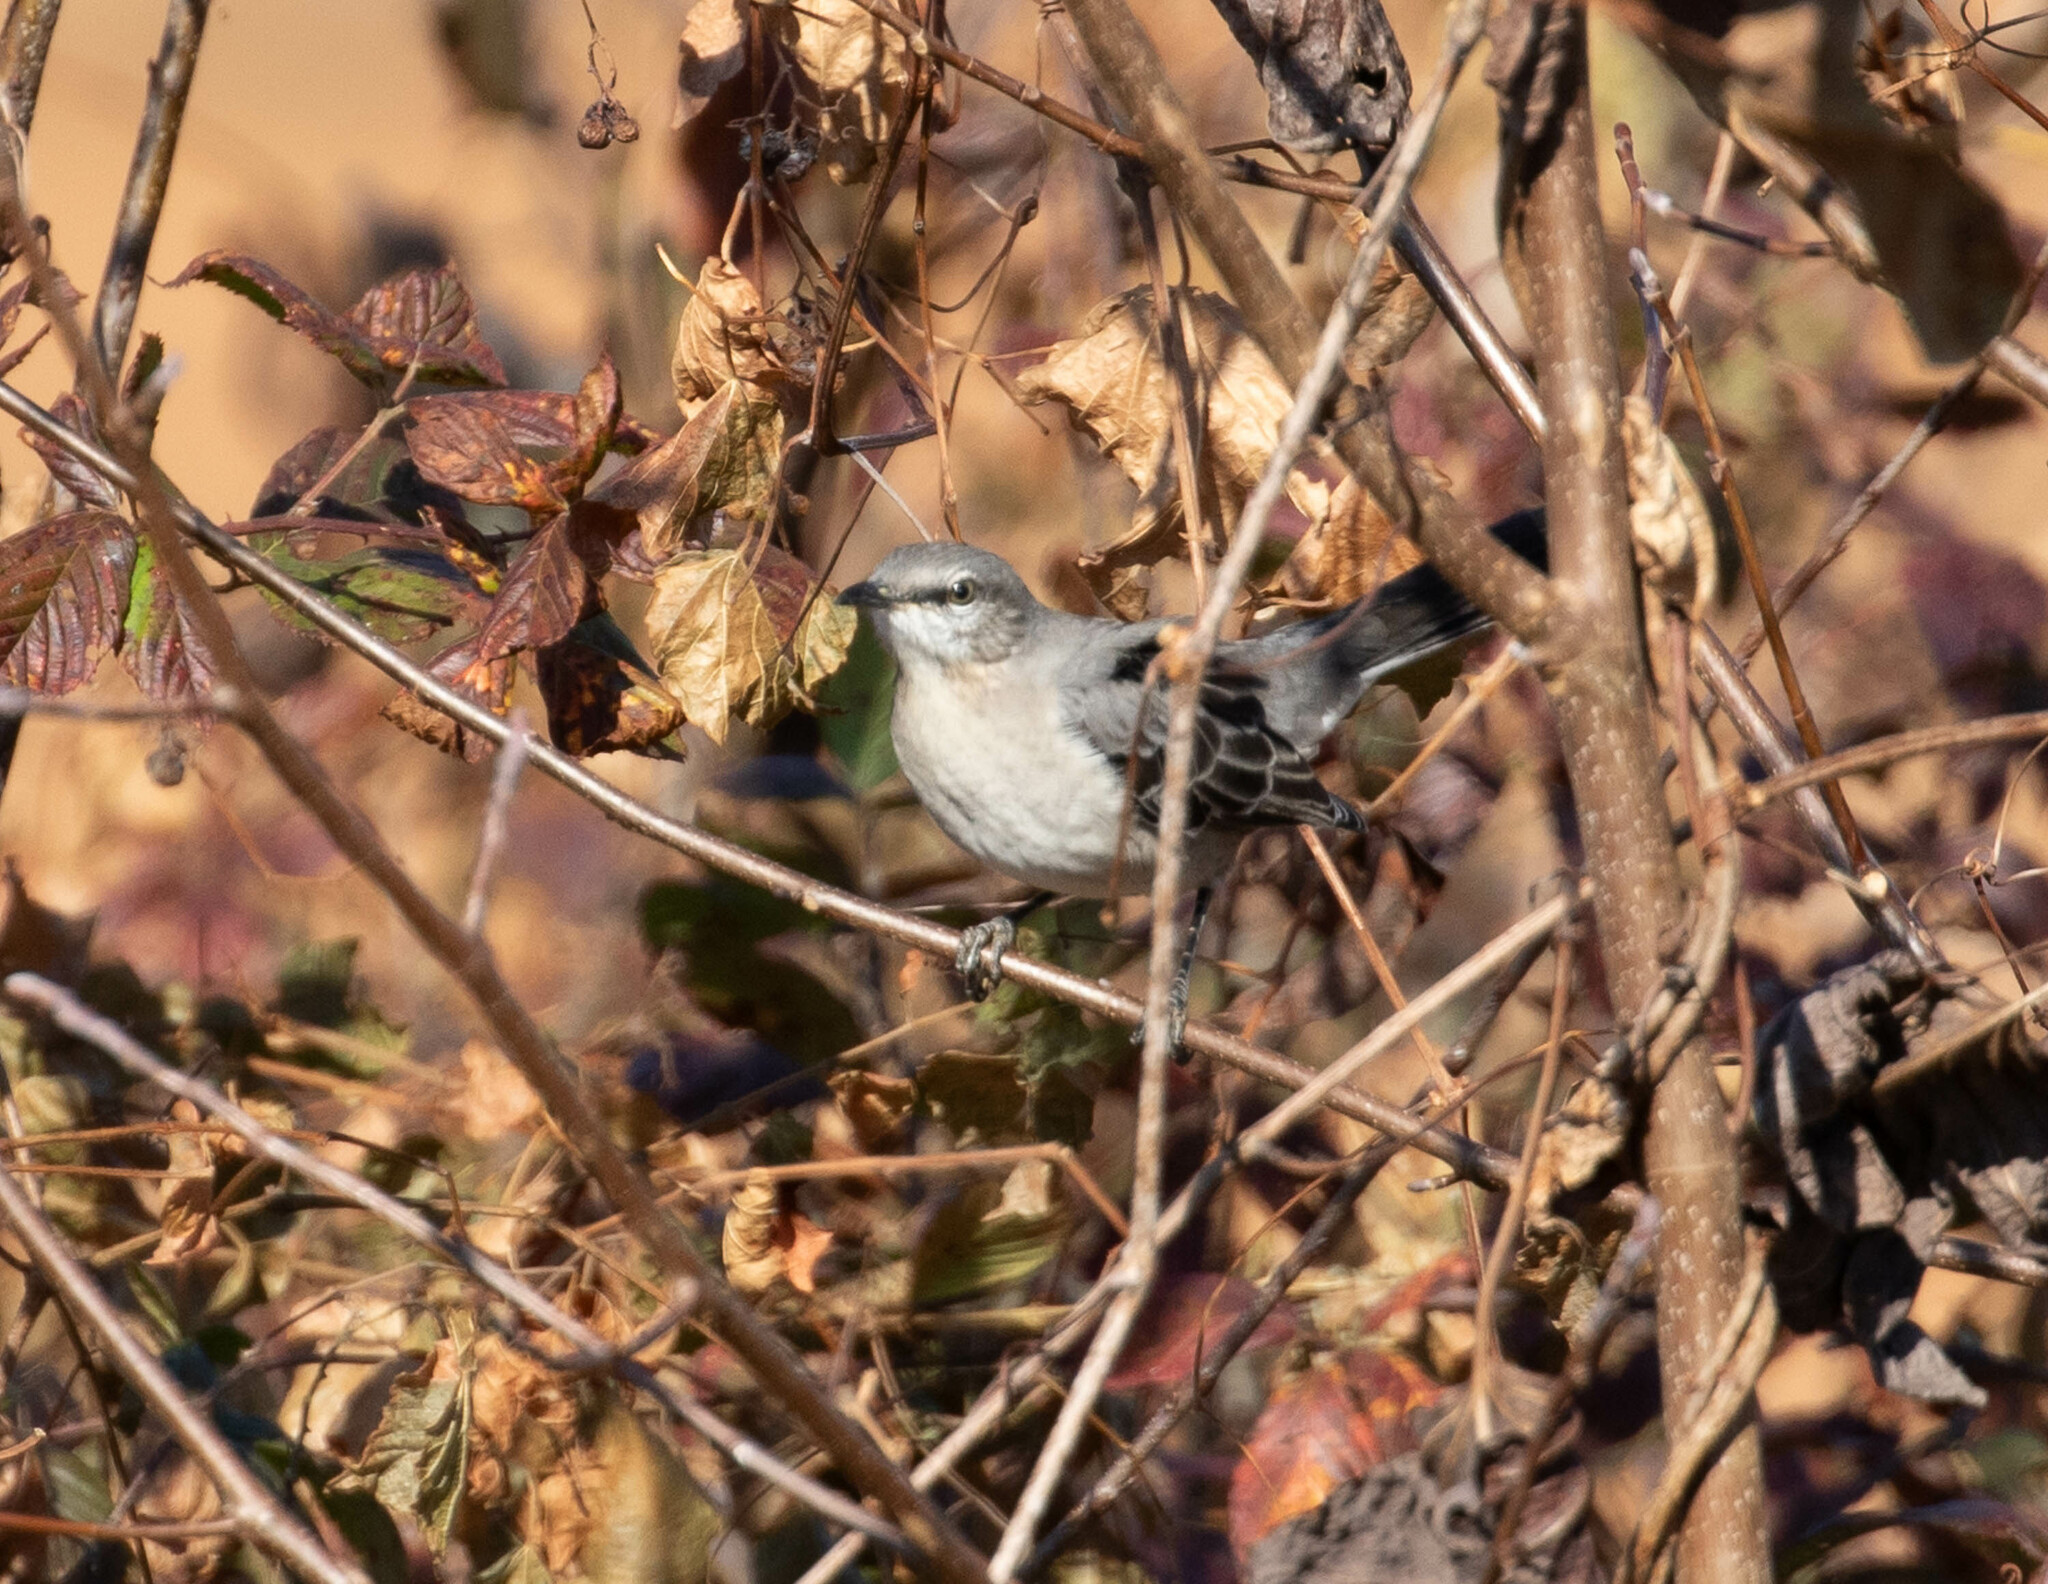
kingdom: Animalia
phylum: Chordata
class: Aves
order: Passeriformes
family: Mimidae
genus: Mimus
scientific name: Mimus polyglottos
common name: Northern mockingbird
